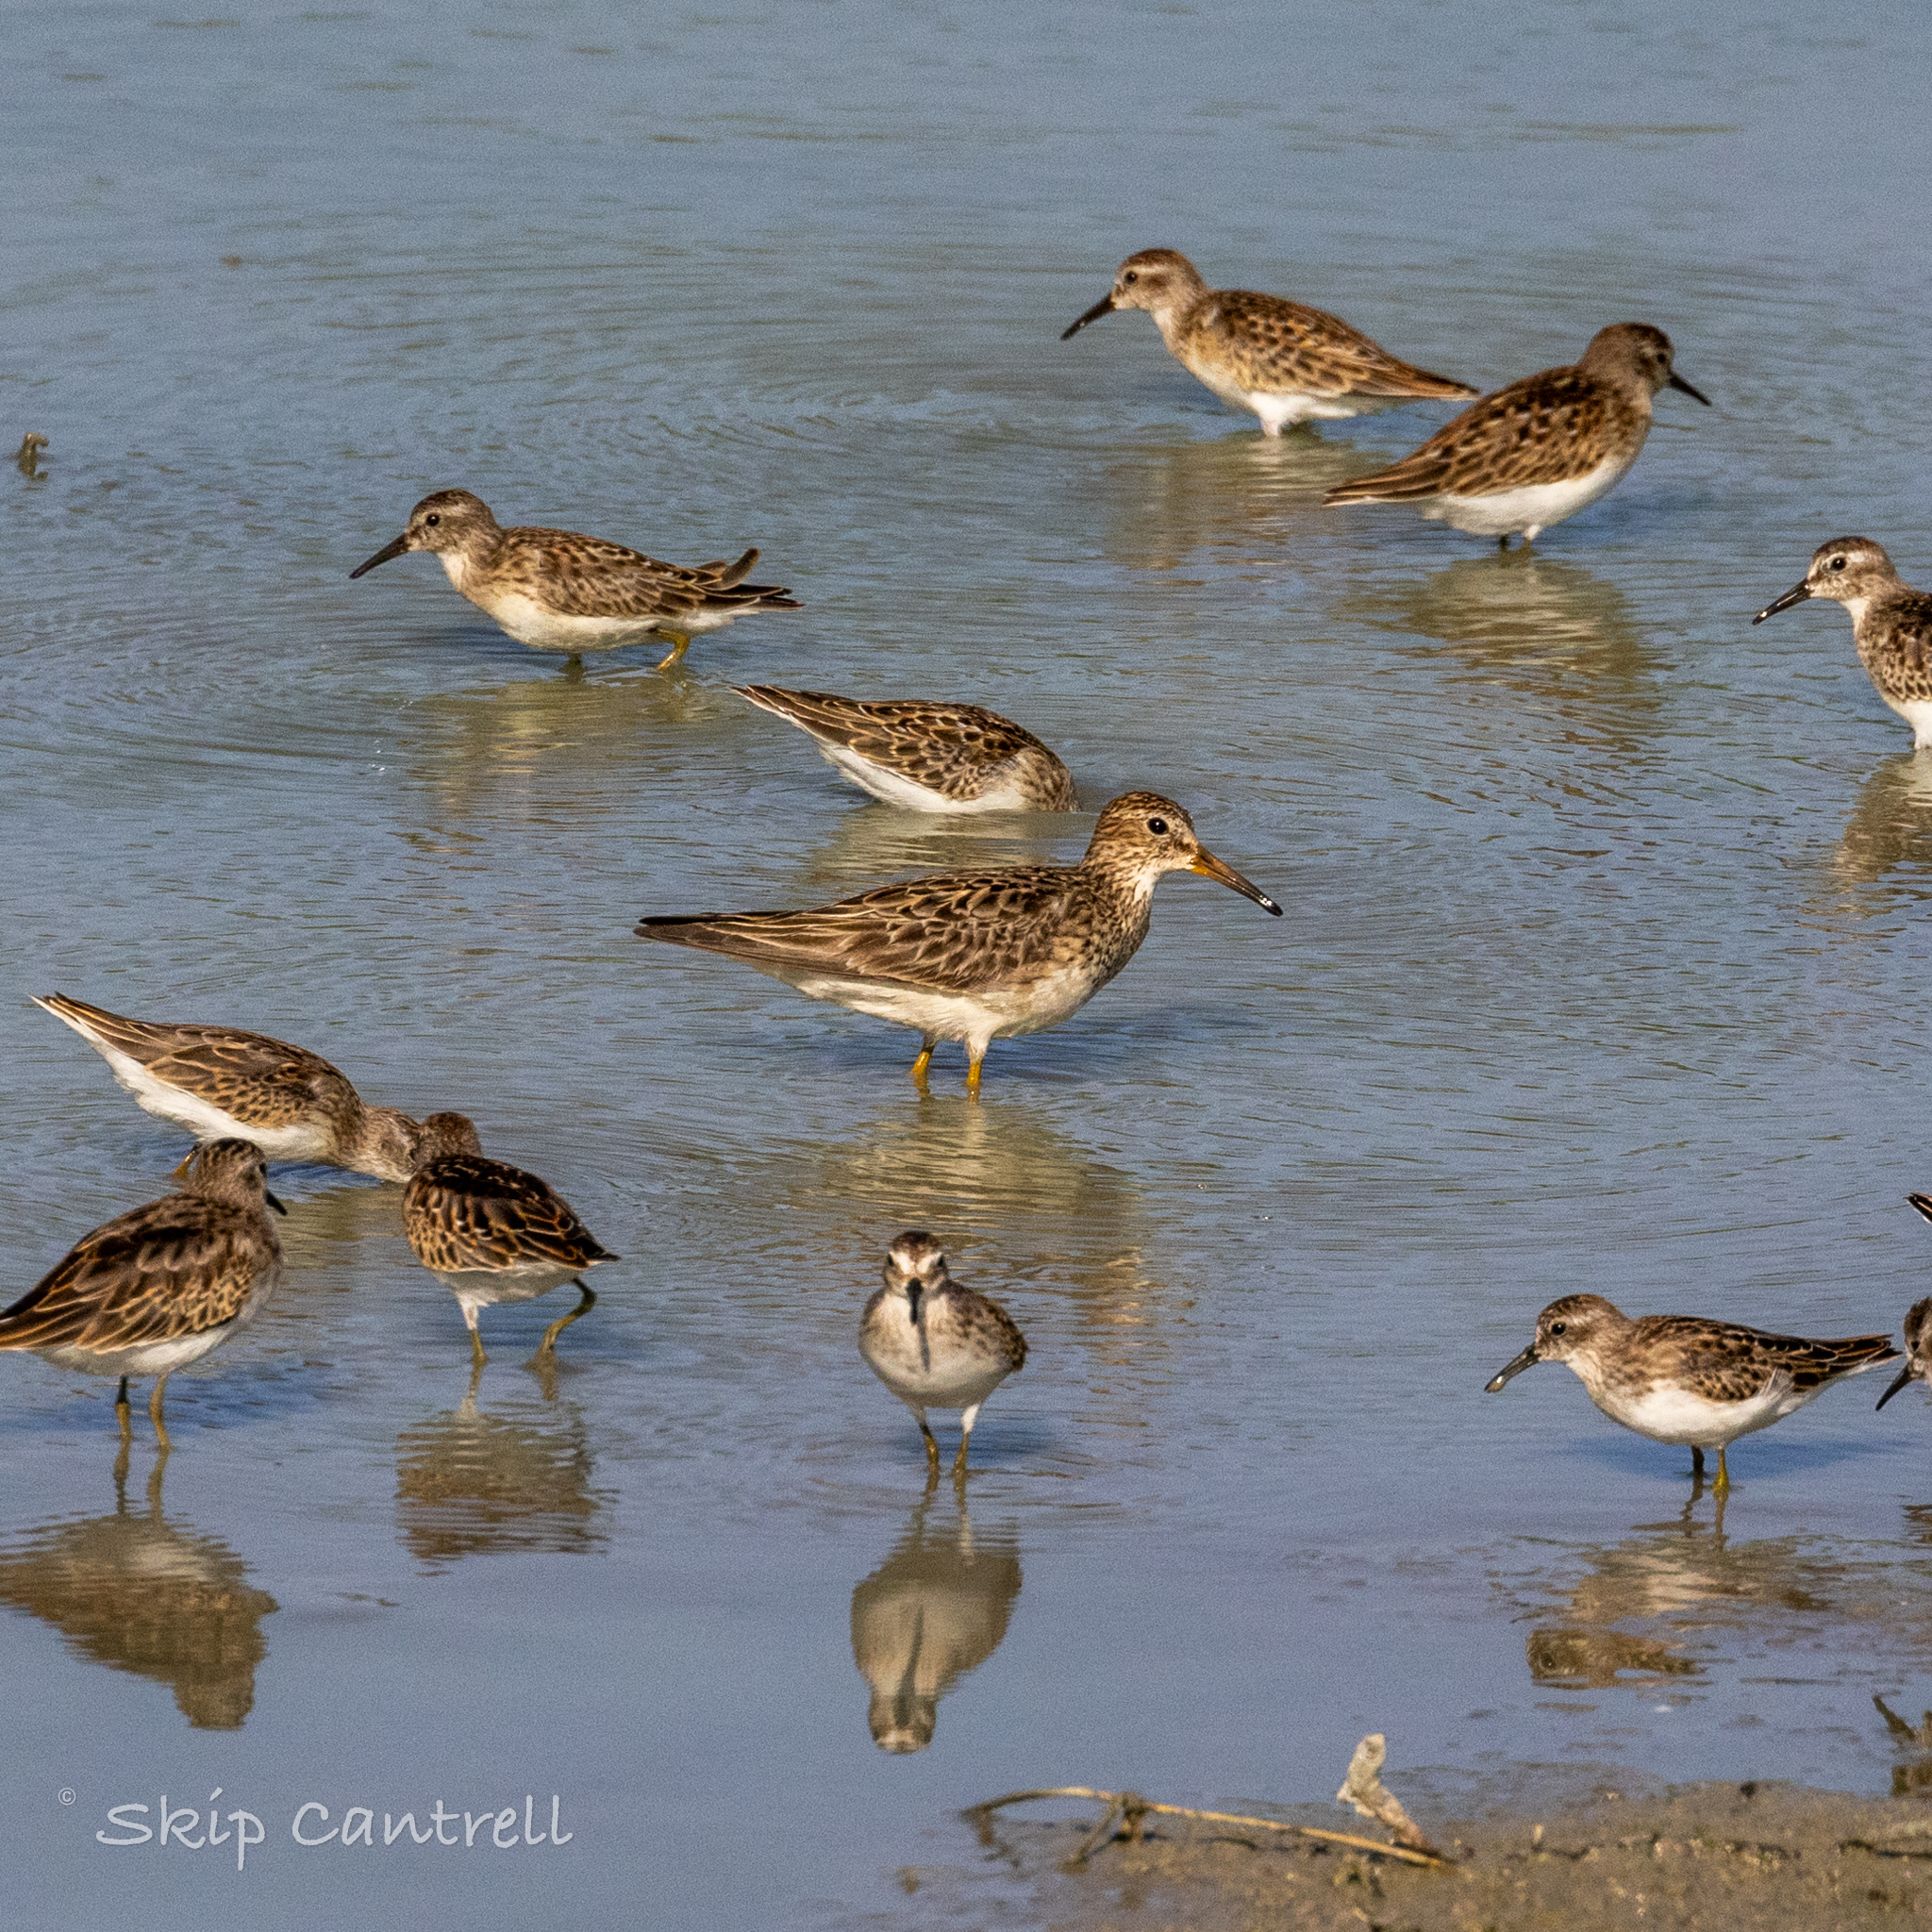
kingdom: Animalia
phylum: Chordata
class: Aves
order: Charadriiformes
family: Scolopacidae
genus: Calidris
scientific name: Calidris melanotos
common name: Pectoral sandpiper
